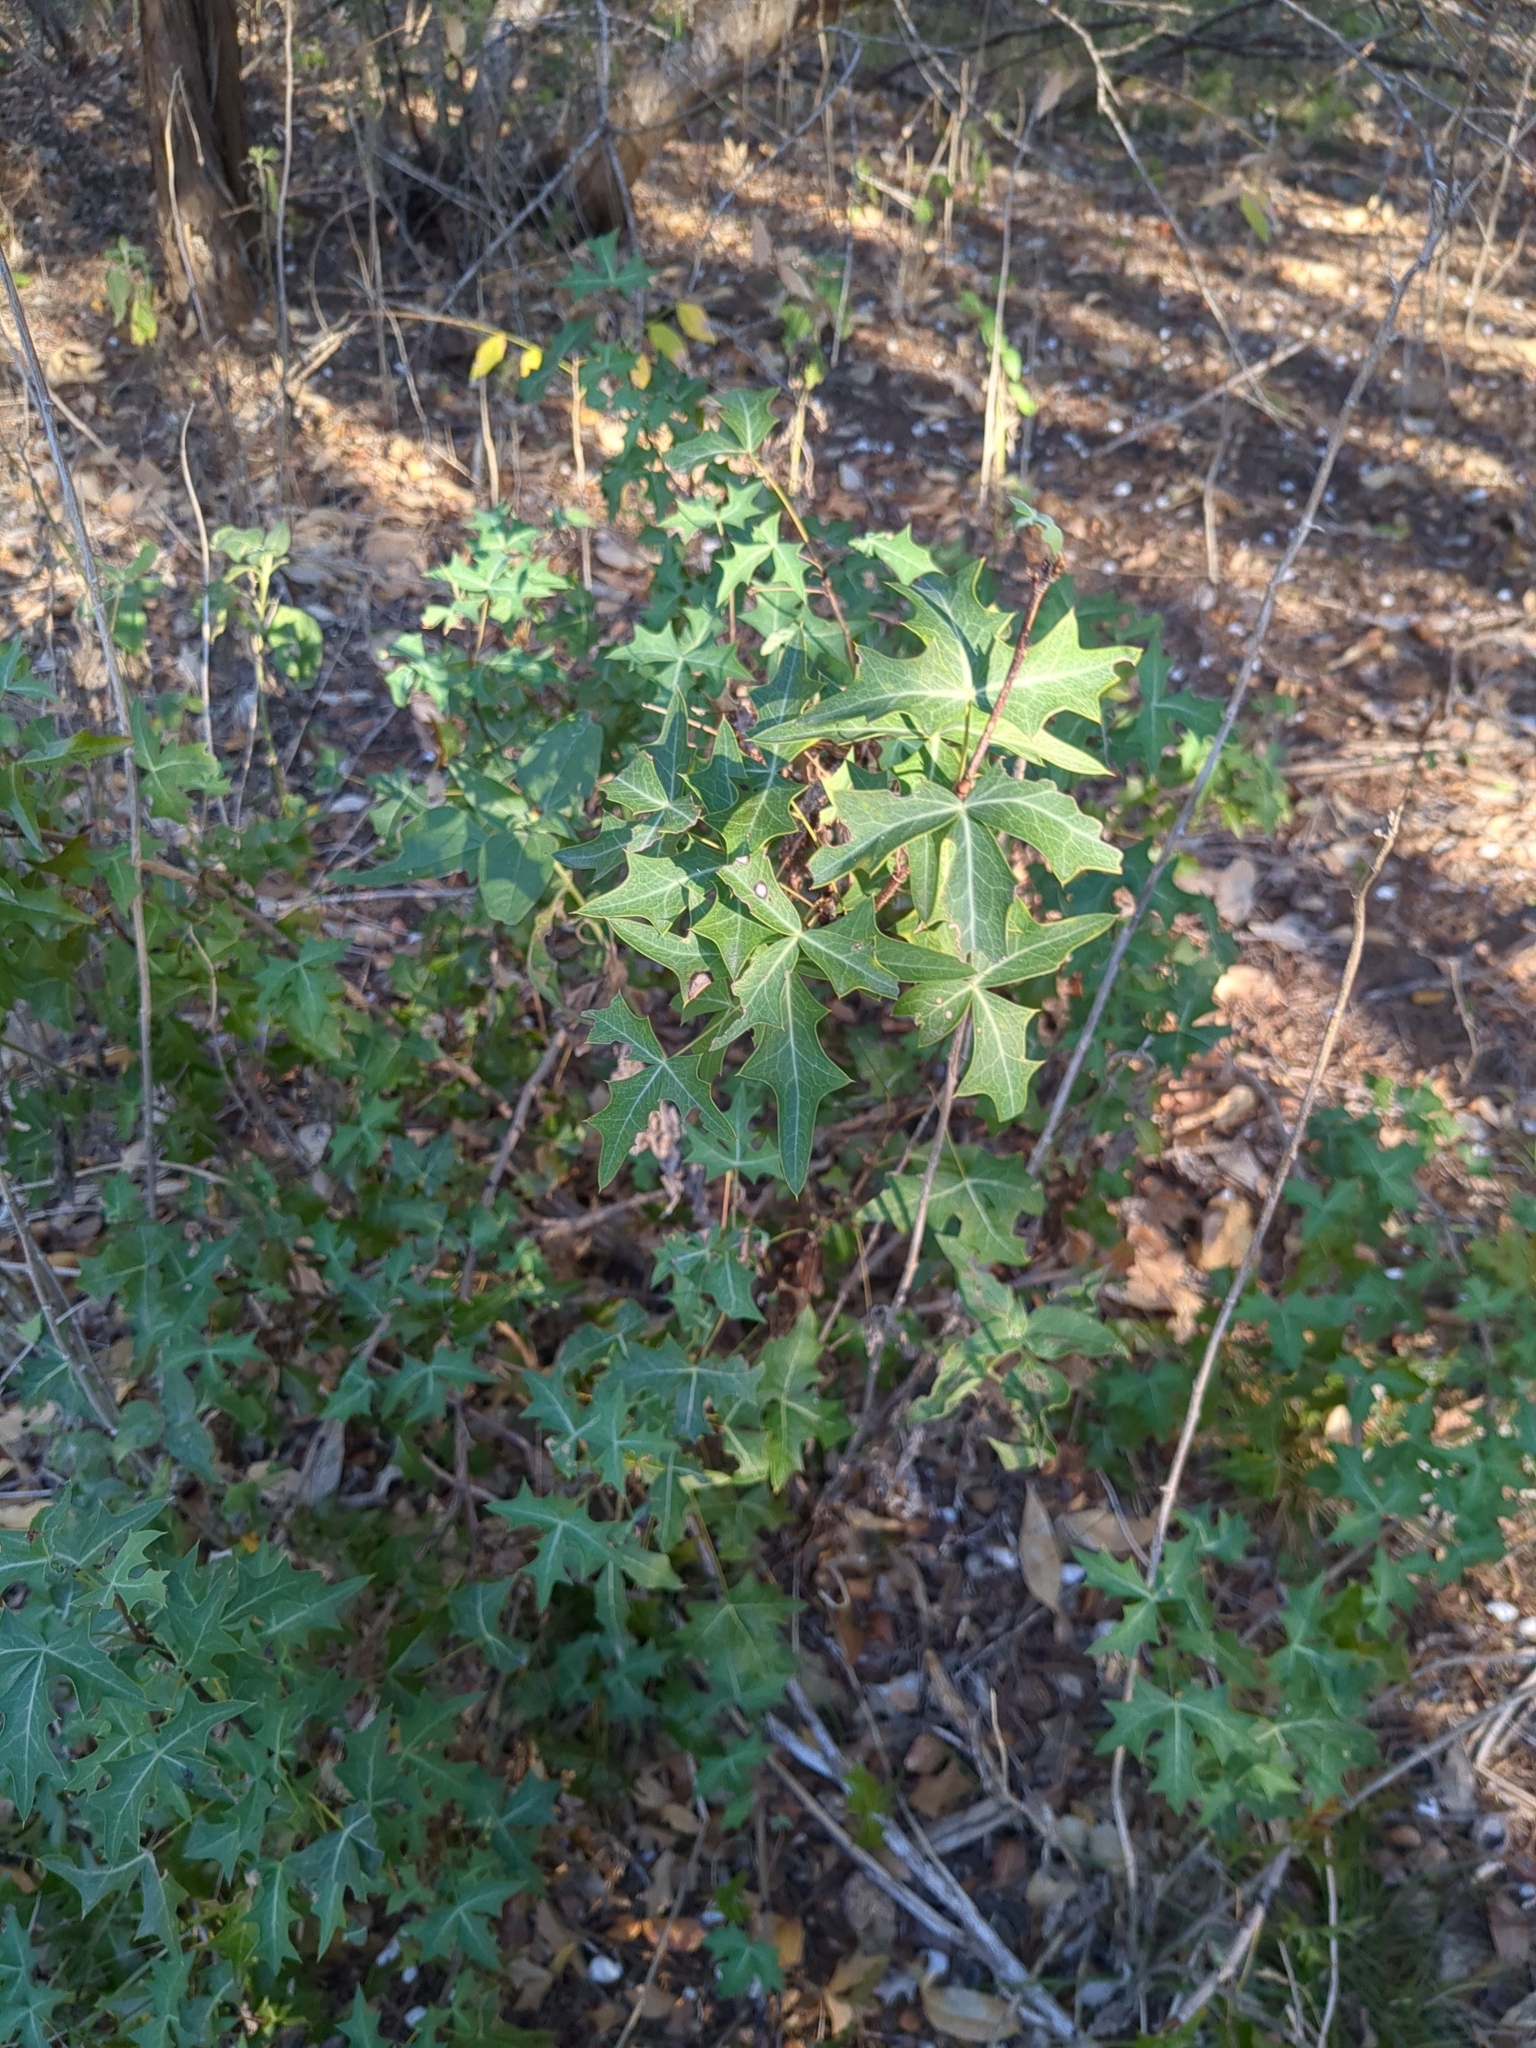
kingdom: Plantae
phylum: Tracheophyta
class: Magnoliopsida
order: Ranunculales
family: Berberidaceae
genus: Alloberberis
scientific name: Alloberberis trifoliolata
